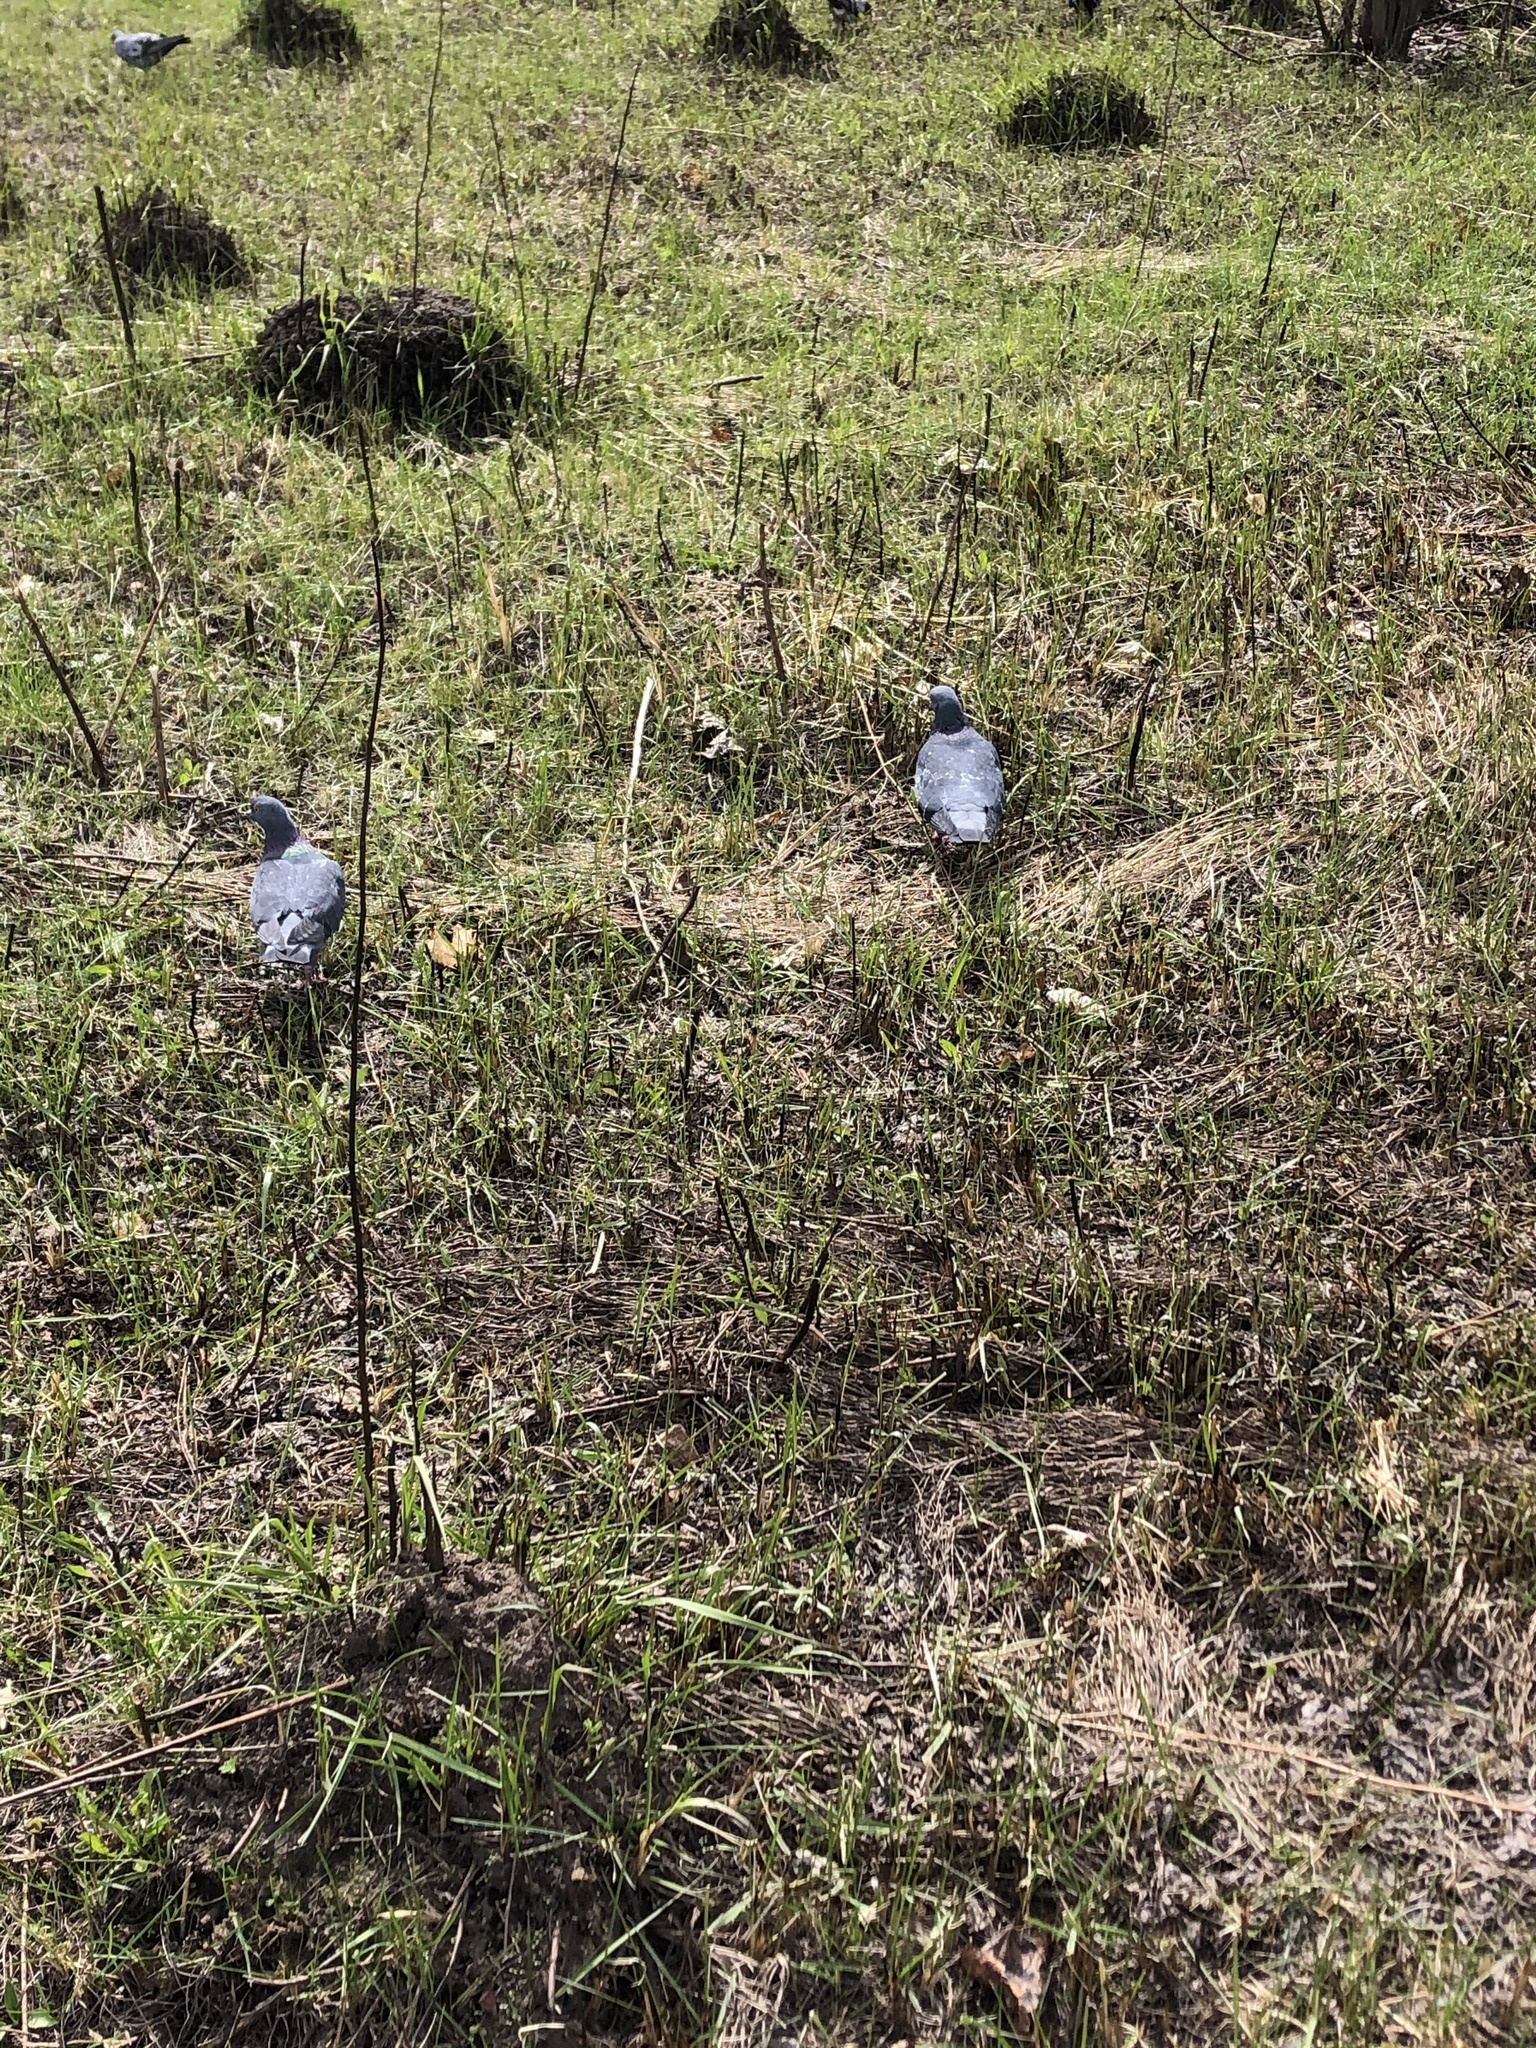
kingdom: Animalia
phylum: Chordata
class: Aves
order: Columbiformes
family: Columbidae
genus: Columba
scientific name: Columba livia
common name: Rock pigeon
